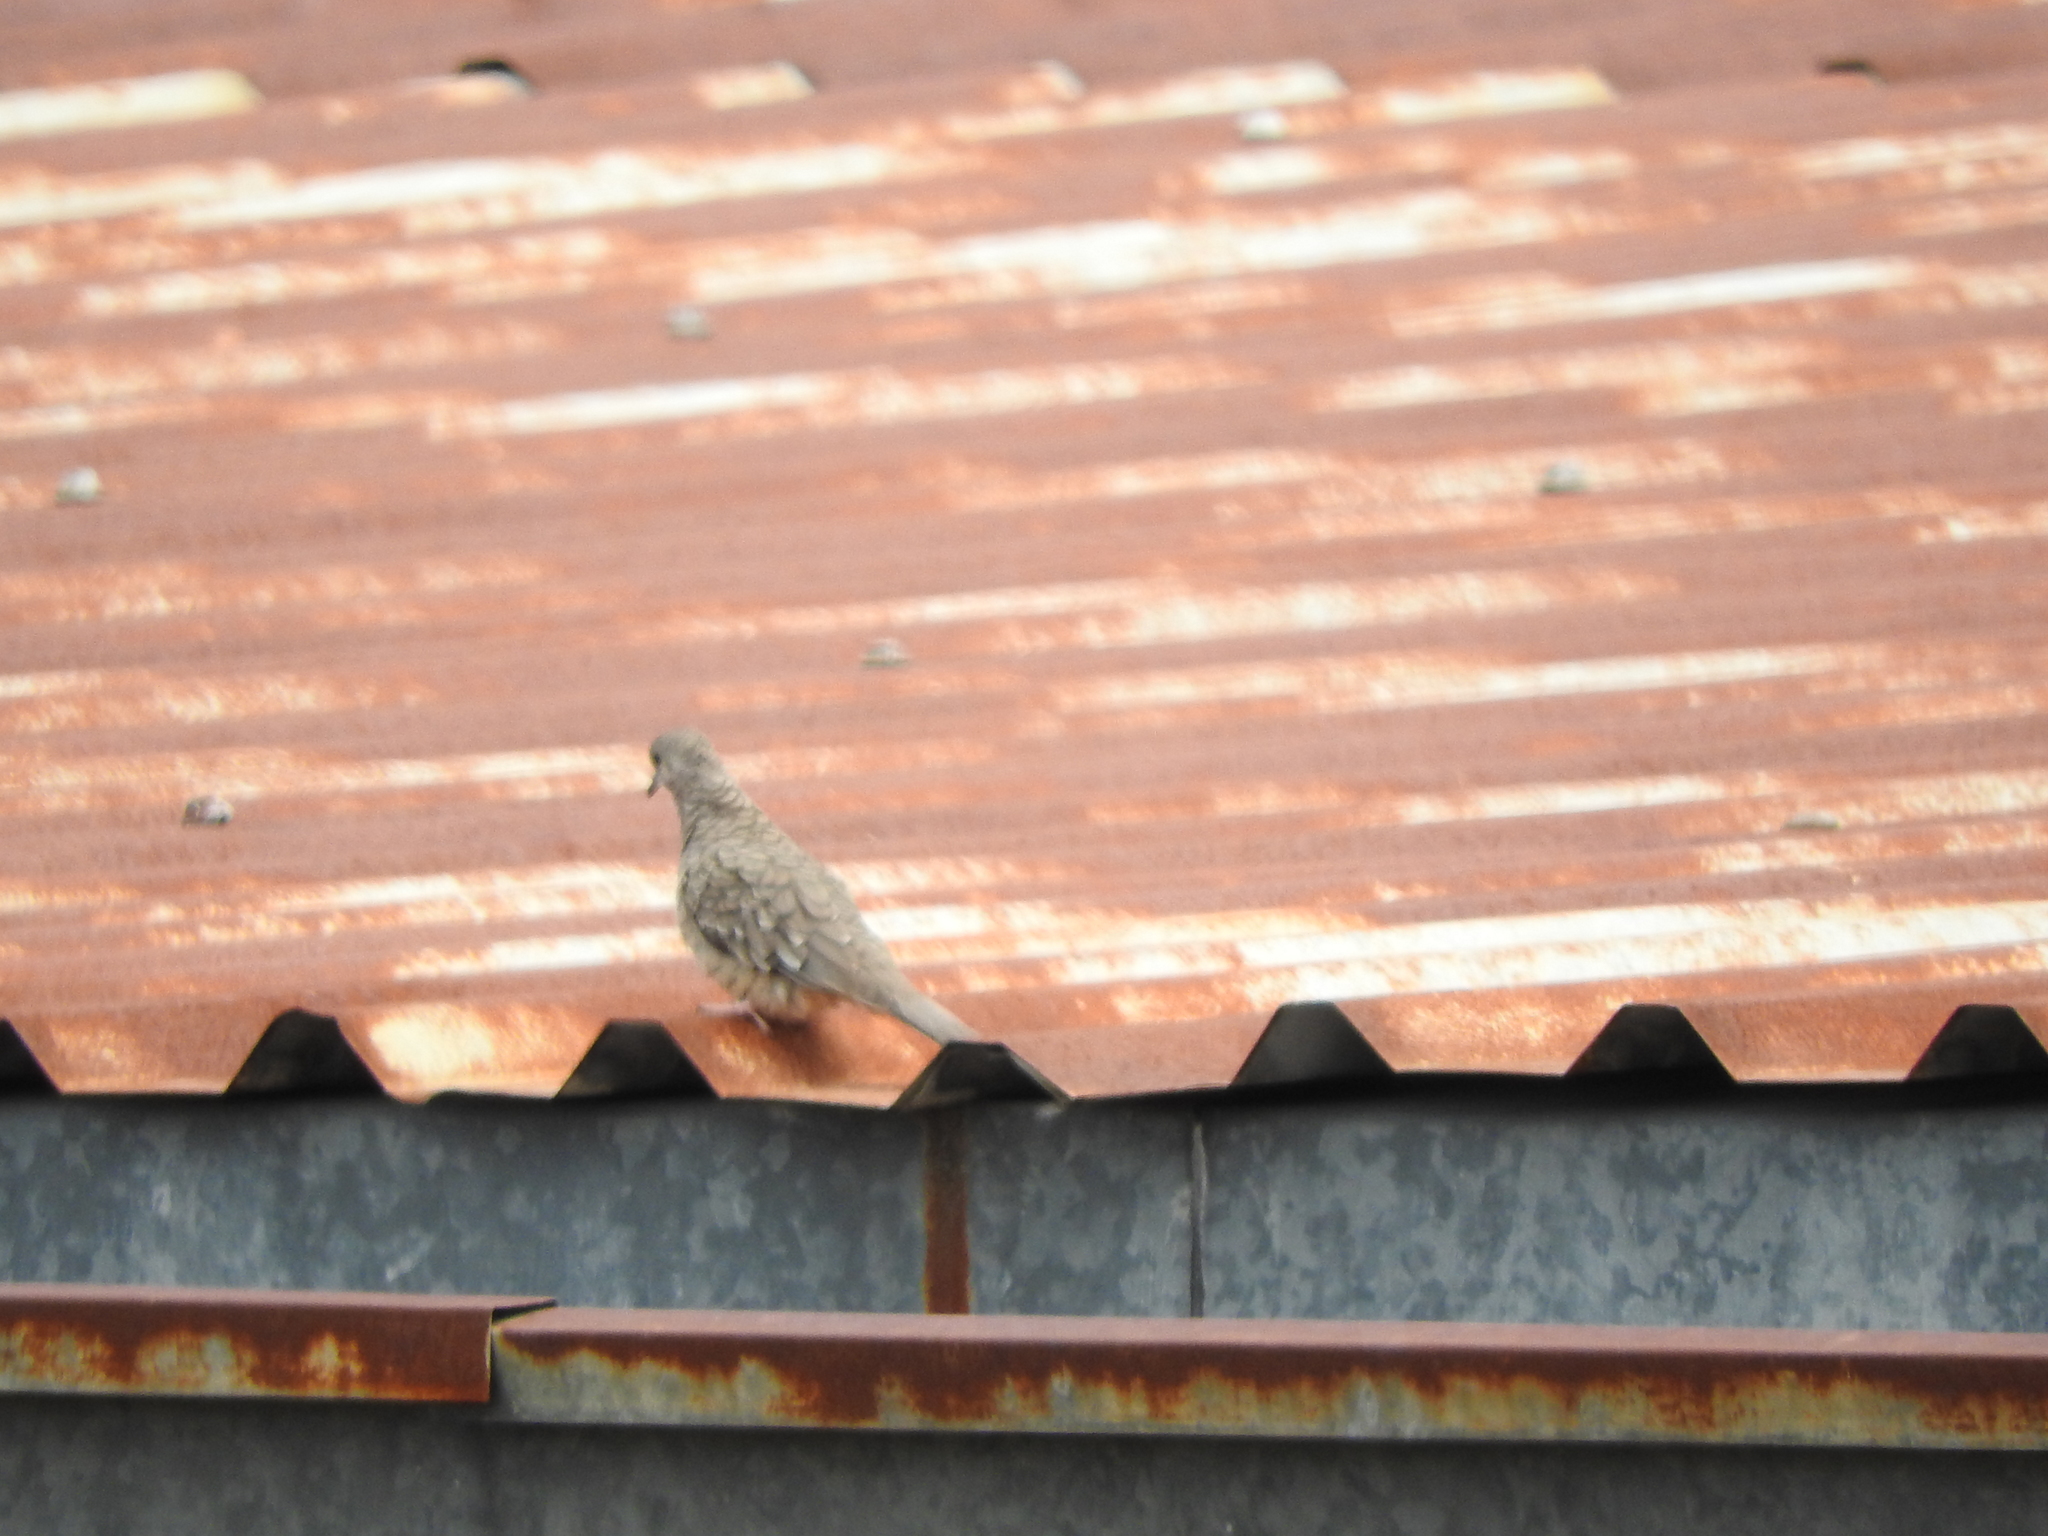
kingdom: Animalia
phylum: Chordata
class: Aves
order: Columbiformes
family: Columbidae
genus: Columbina
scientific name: Columbina inca
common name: Inca dove
